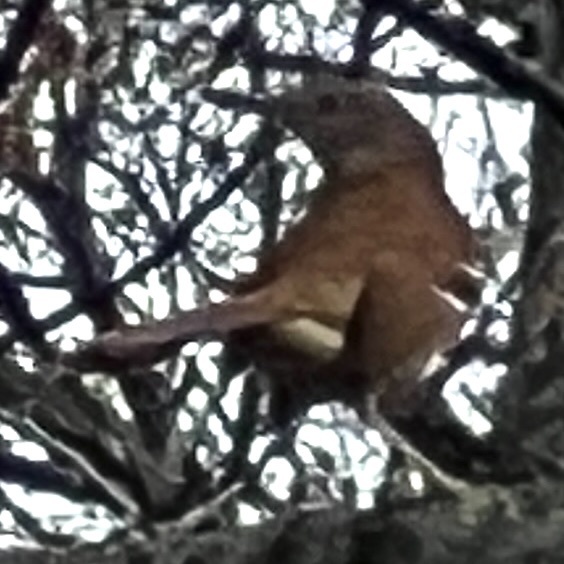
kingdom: Animalia
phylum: Chordata
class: Aves
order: Passeriformes
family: Mimidae
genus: Toxostoma
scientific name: Toxostoma rufum
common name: Brown thrasher
